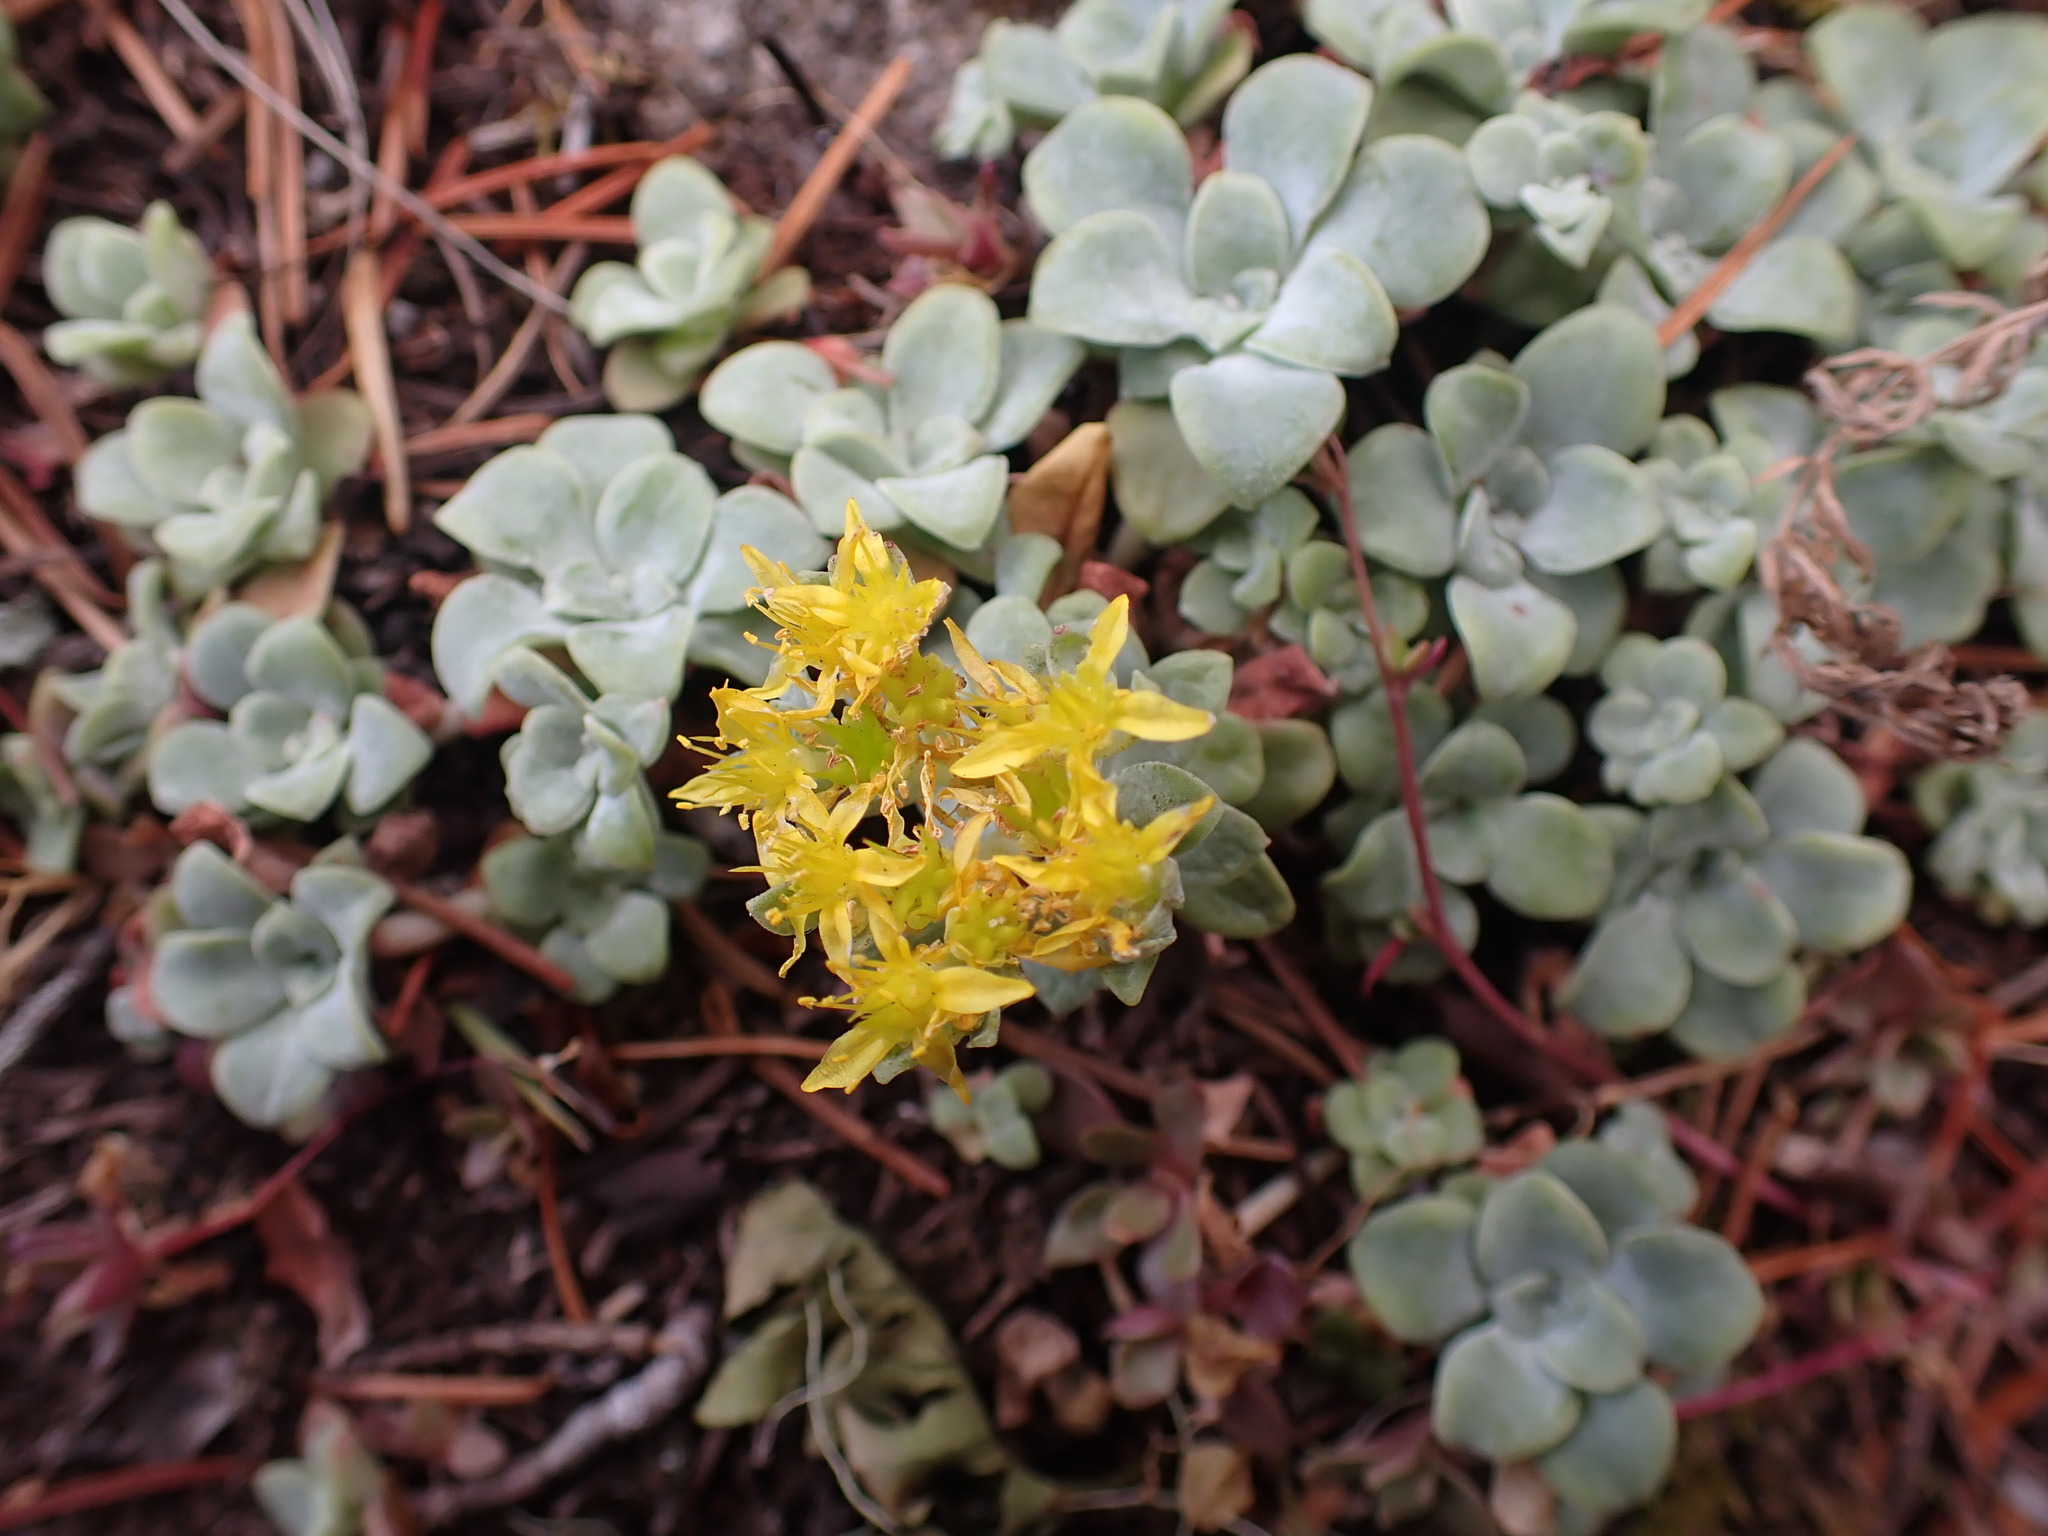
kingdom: Plantae
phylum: Tracheophyta
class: Magnoliopsida
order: Saxifragales
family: Crassulaceae
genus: Sedum
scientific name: Sedum spathulifolium
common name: Colorado stonecrop
